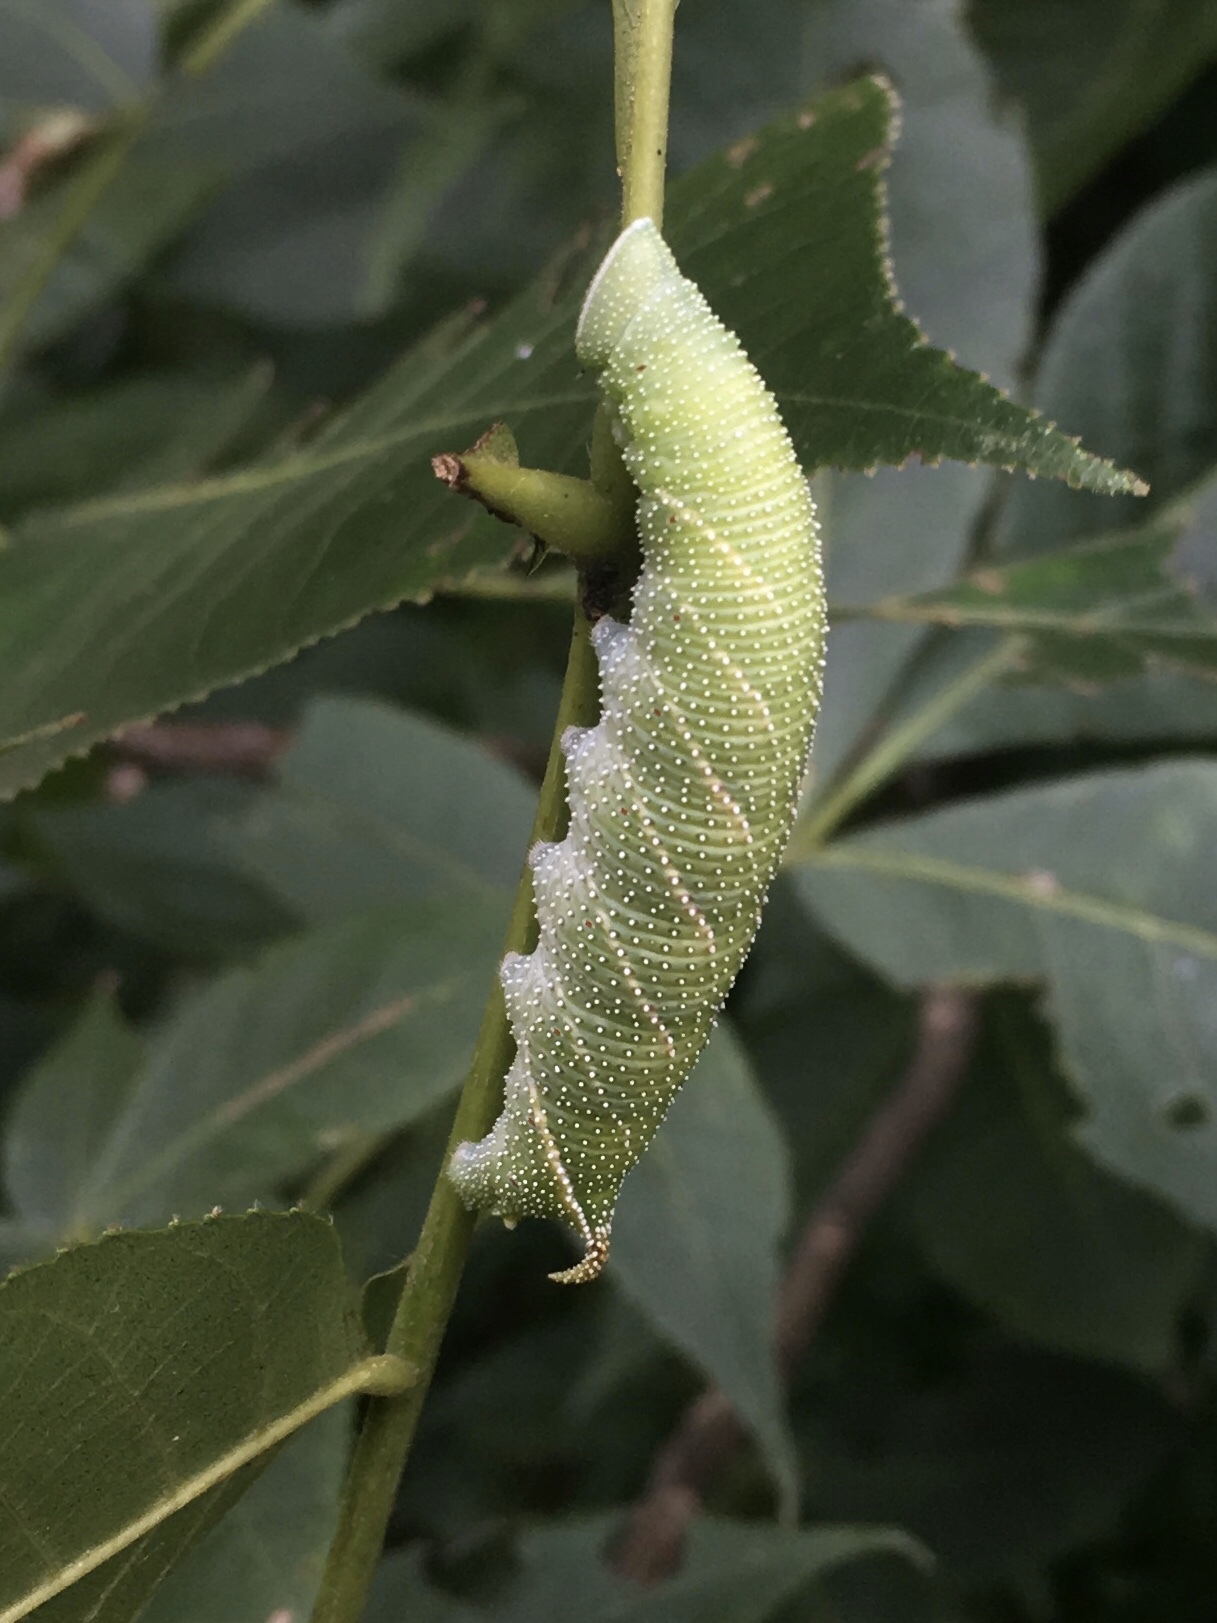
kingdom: Animalia
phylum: Arthropoda
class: Insecta
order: Lepidoptera
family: Sphingidae
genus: Amorpha
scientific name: Amorpha juglandis
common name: Walnut sphinx
